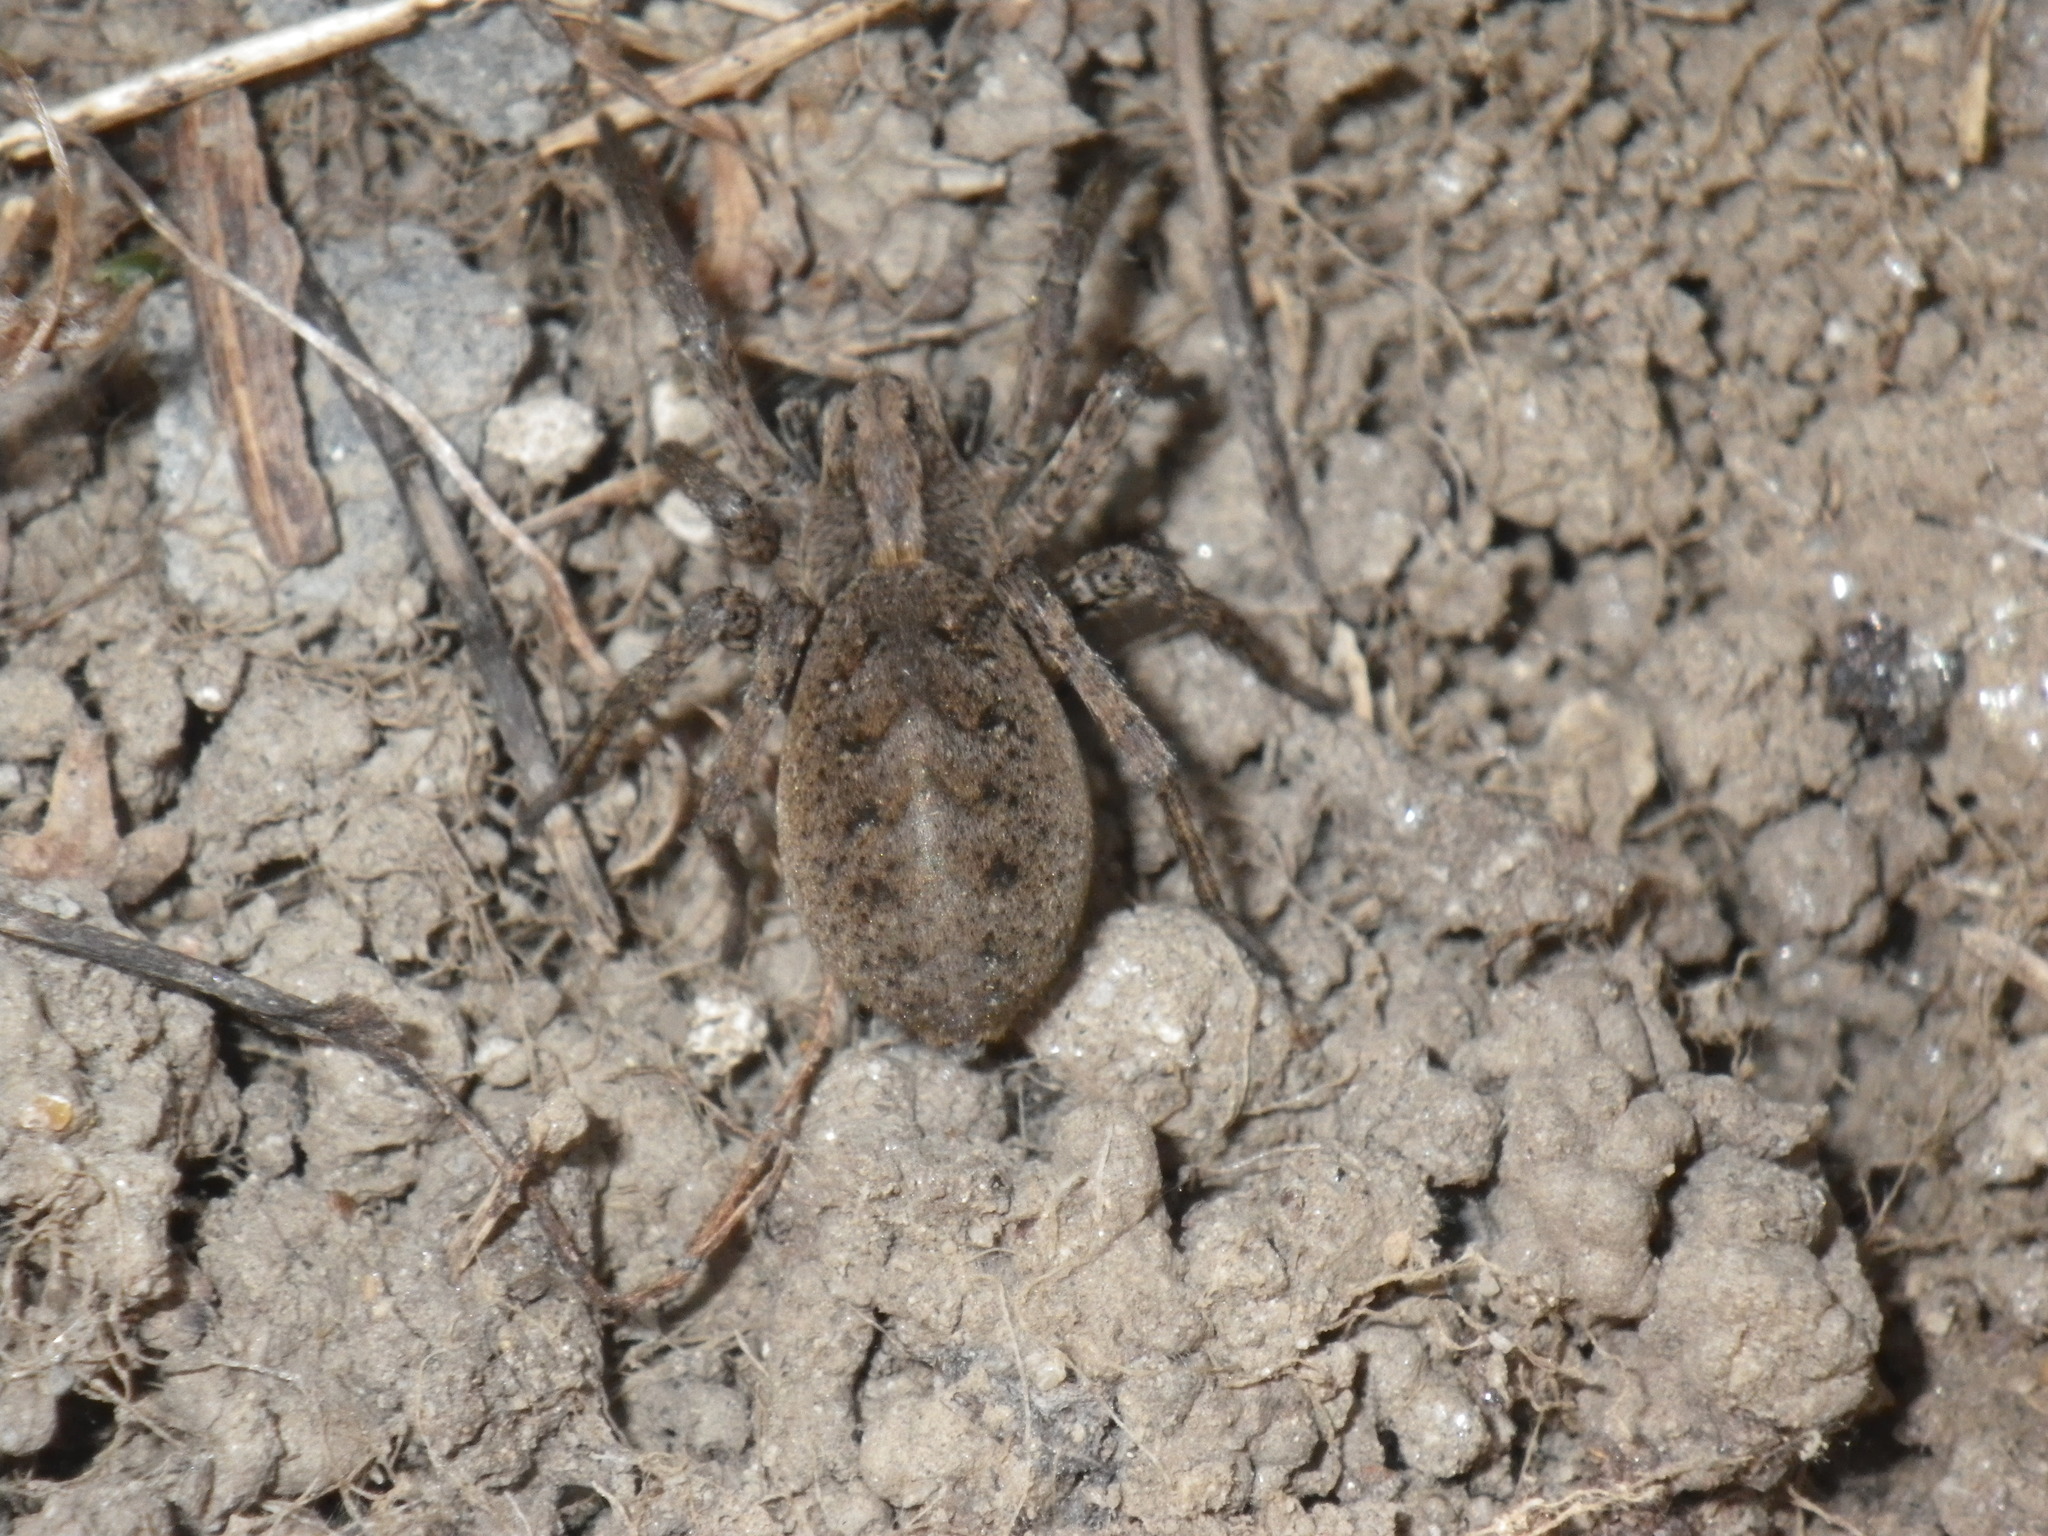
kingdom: Animalia
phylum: Arthropoda
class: Arachnida
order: Araneae
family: Lycosidae
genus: Alopecosa
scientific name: Alopecosa kochi
